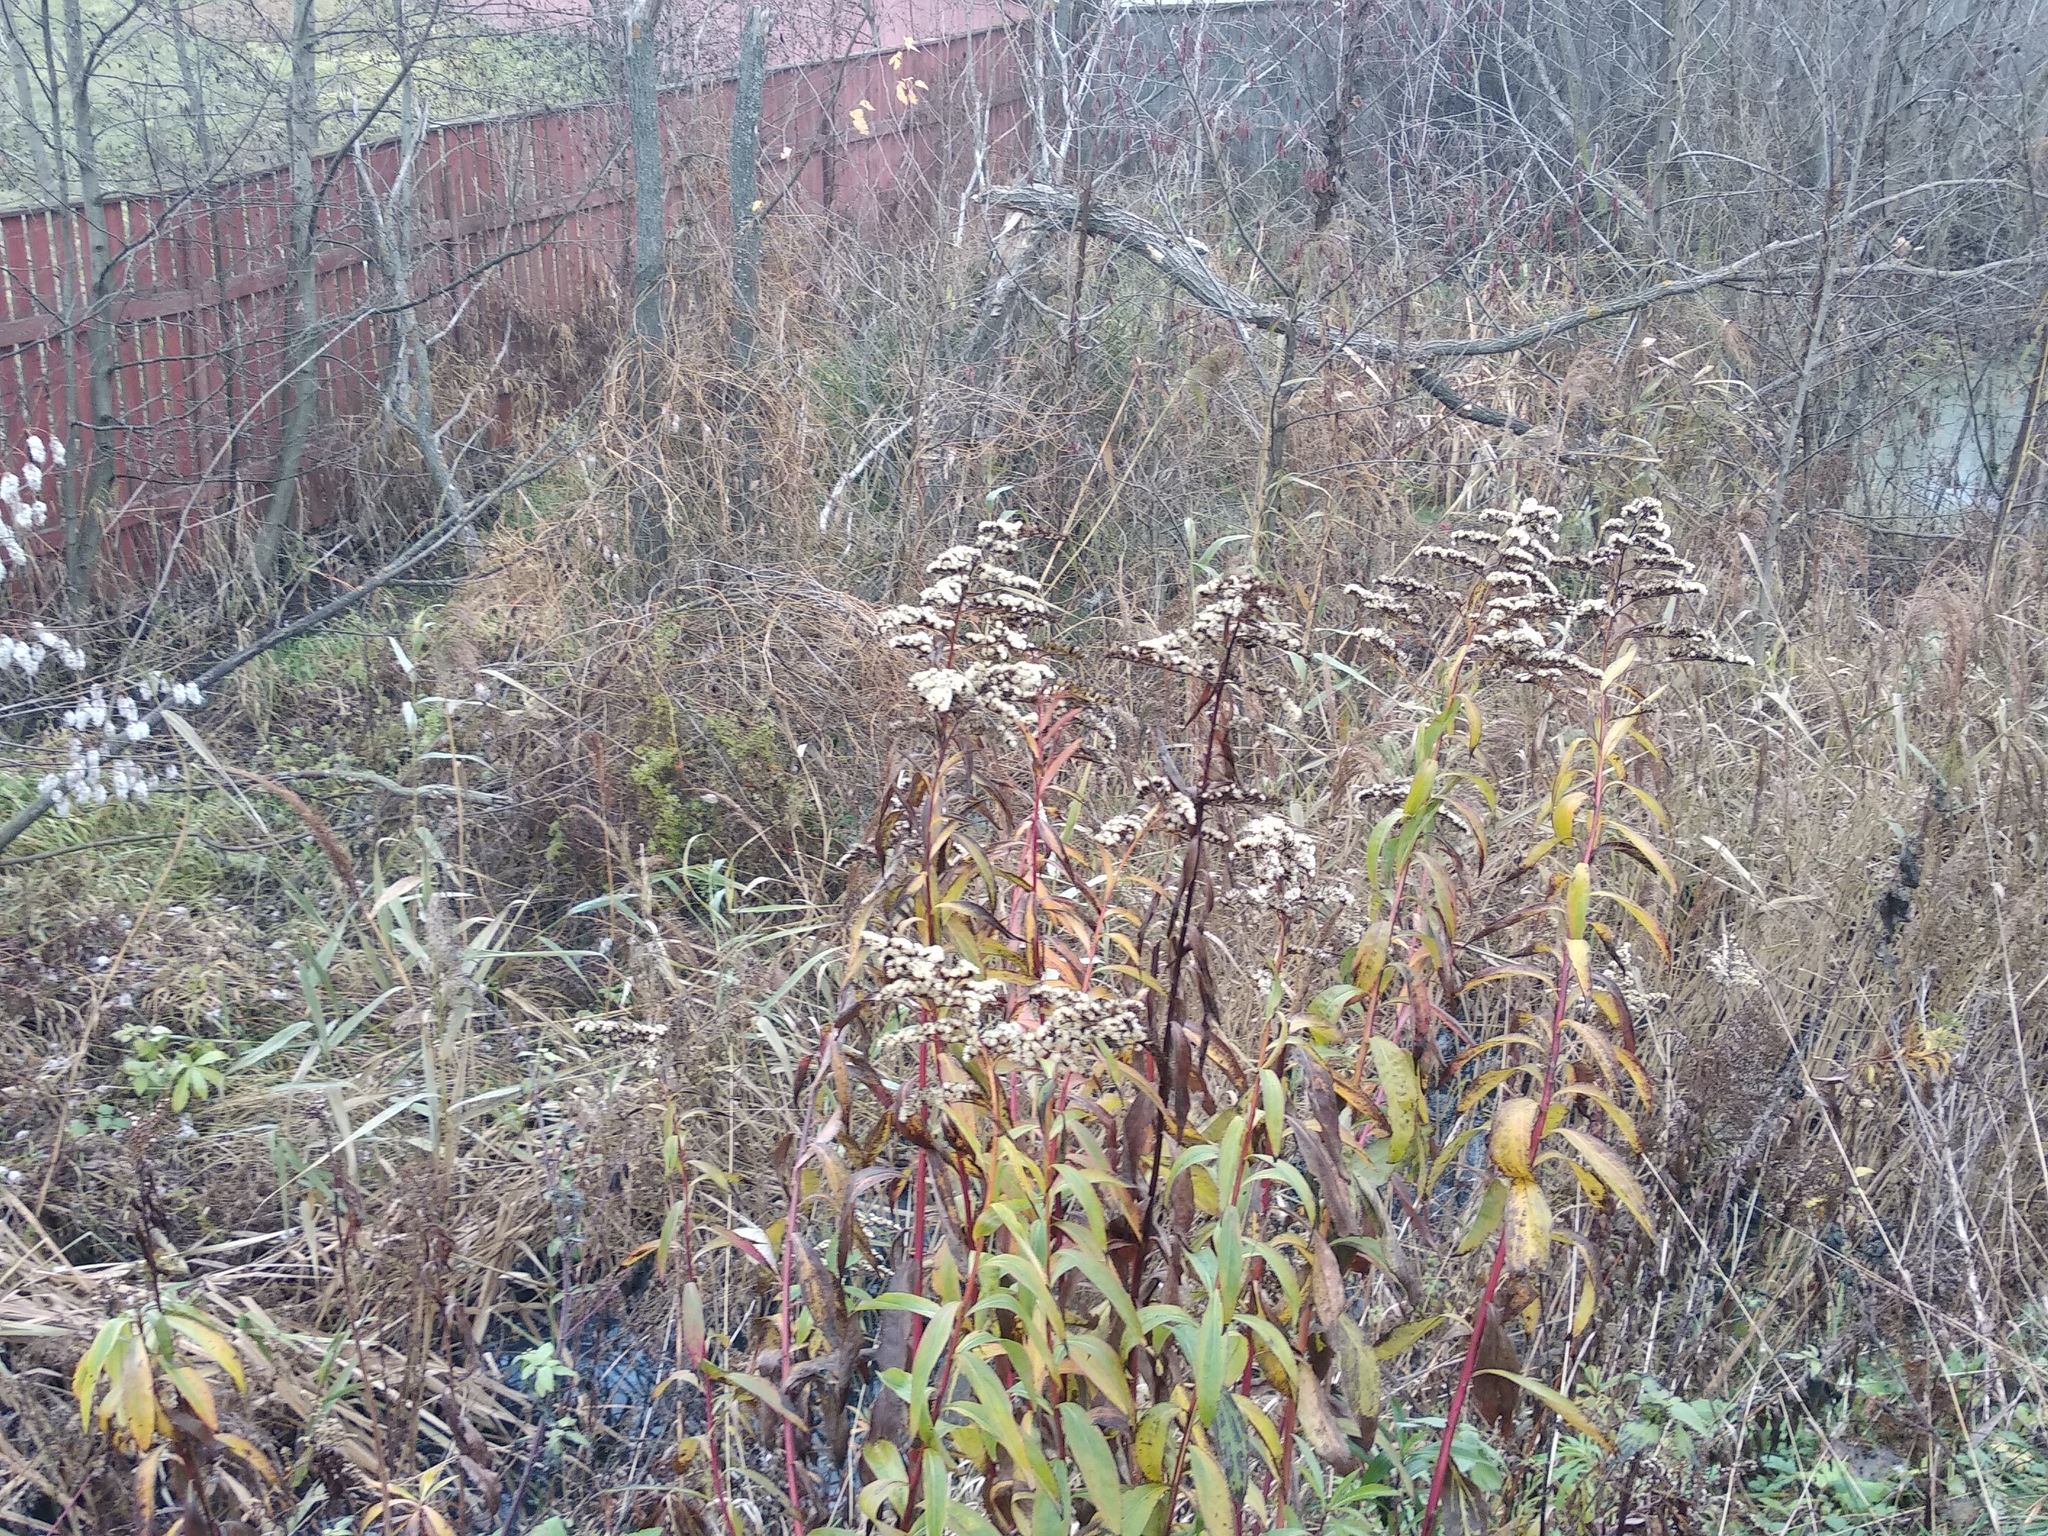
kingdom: Plantae
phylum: Tracheophyta
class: Magnoliopsida
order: Asterales
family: Asteraceae
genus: Solidago
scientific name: Solidago gigantea
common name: Giant goldenrod
